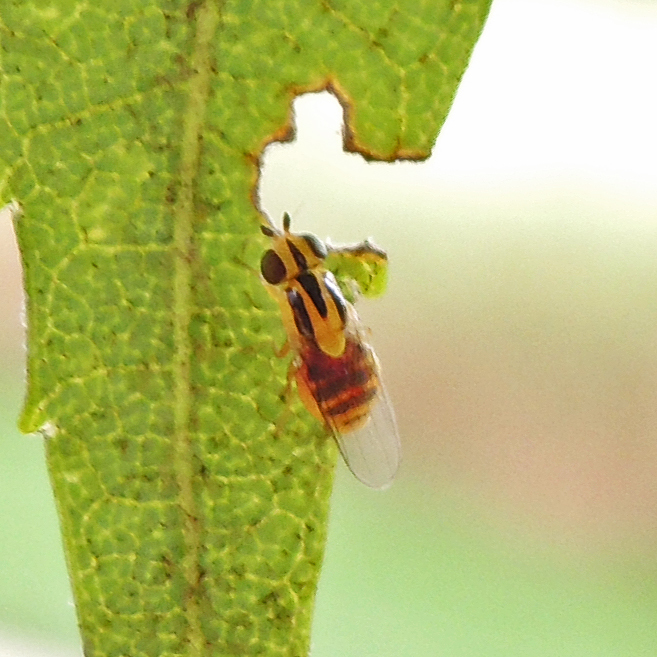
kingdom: Animalia
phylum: Arthropoda
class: Insecta
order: Diptera
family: Chloropidae
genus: Thaumatomyia
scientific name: Thaumatomyia glabra
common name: Chloropid fly
